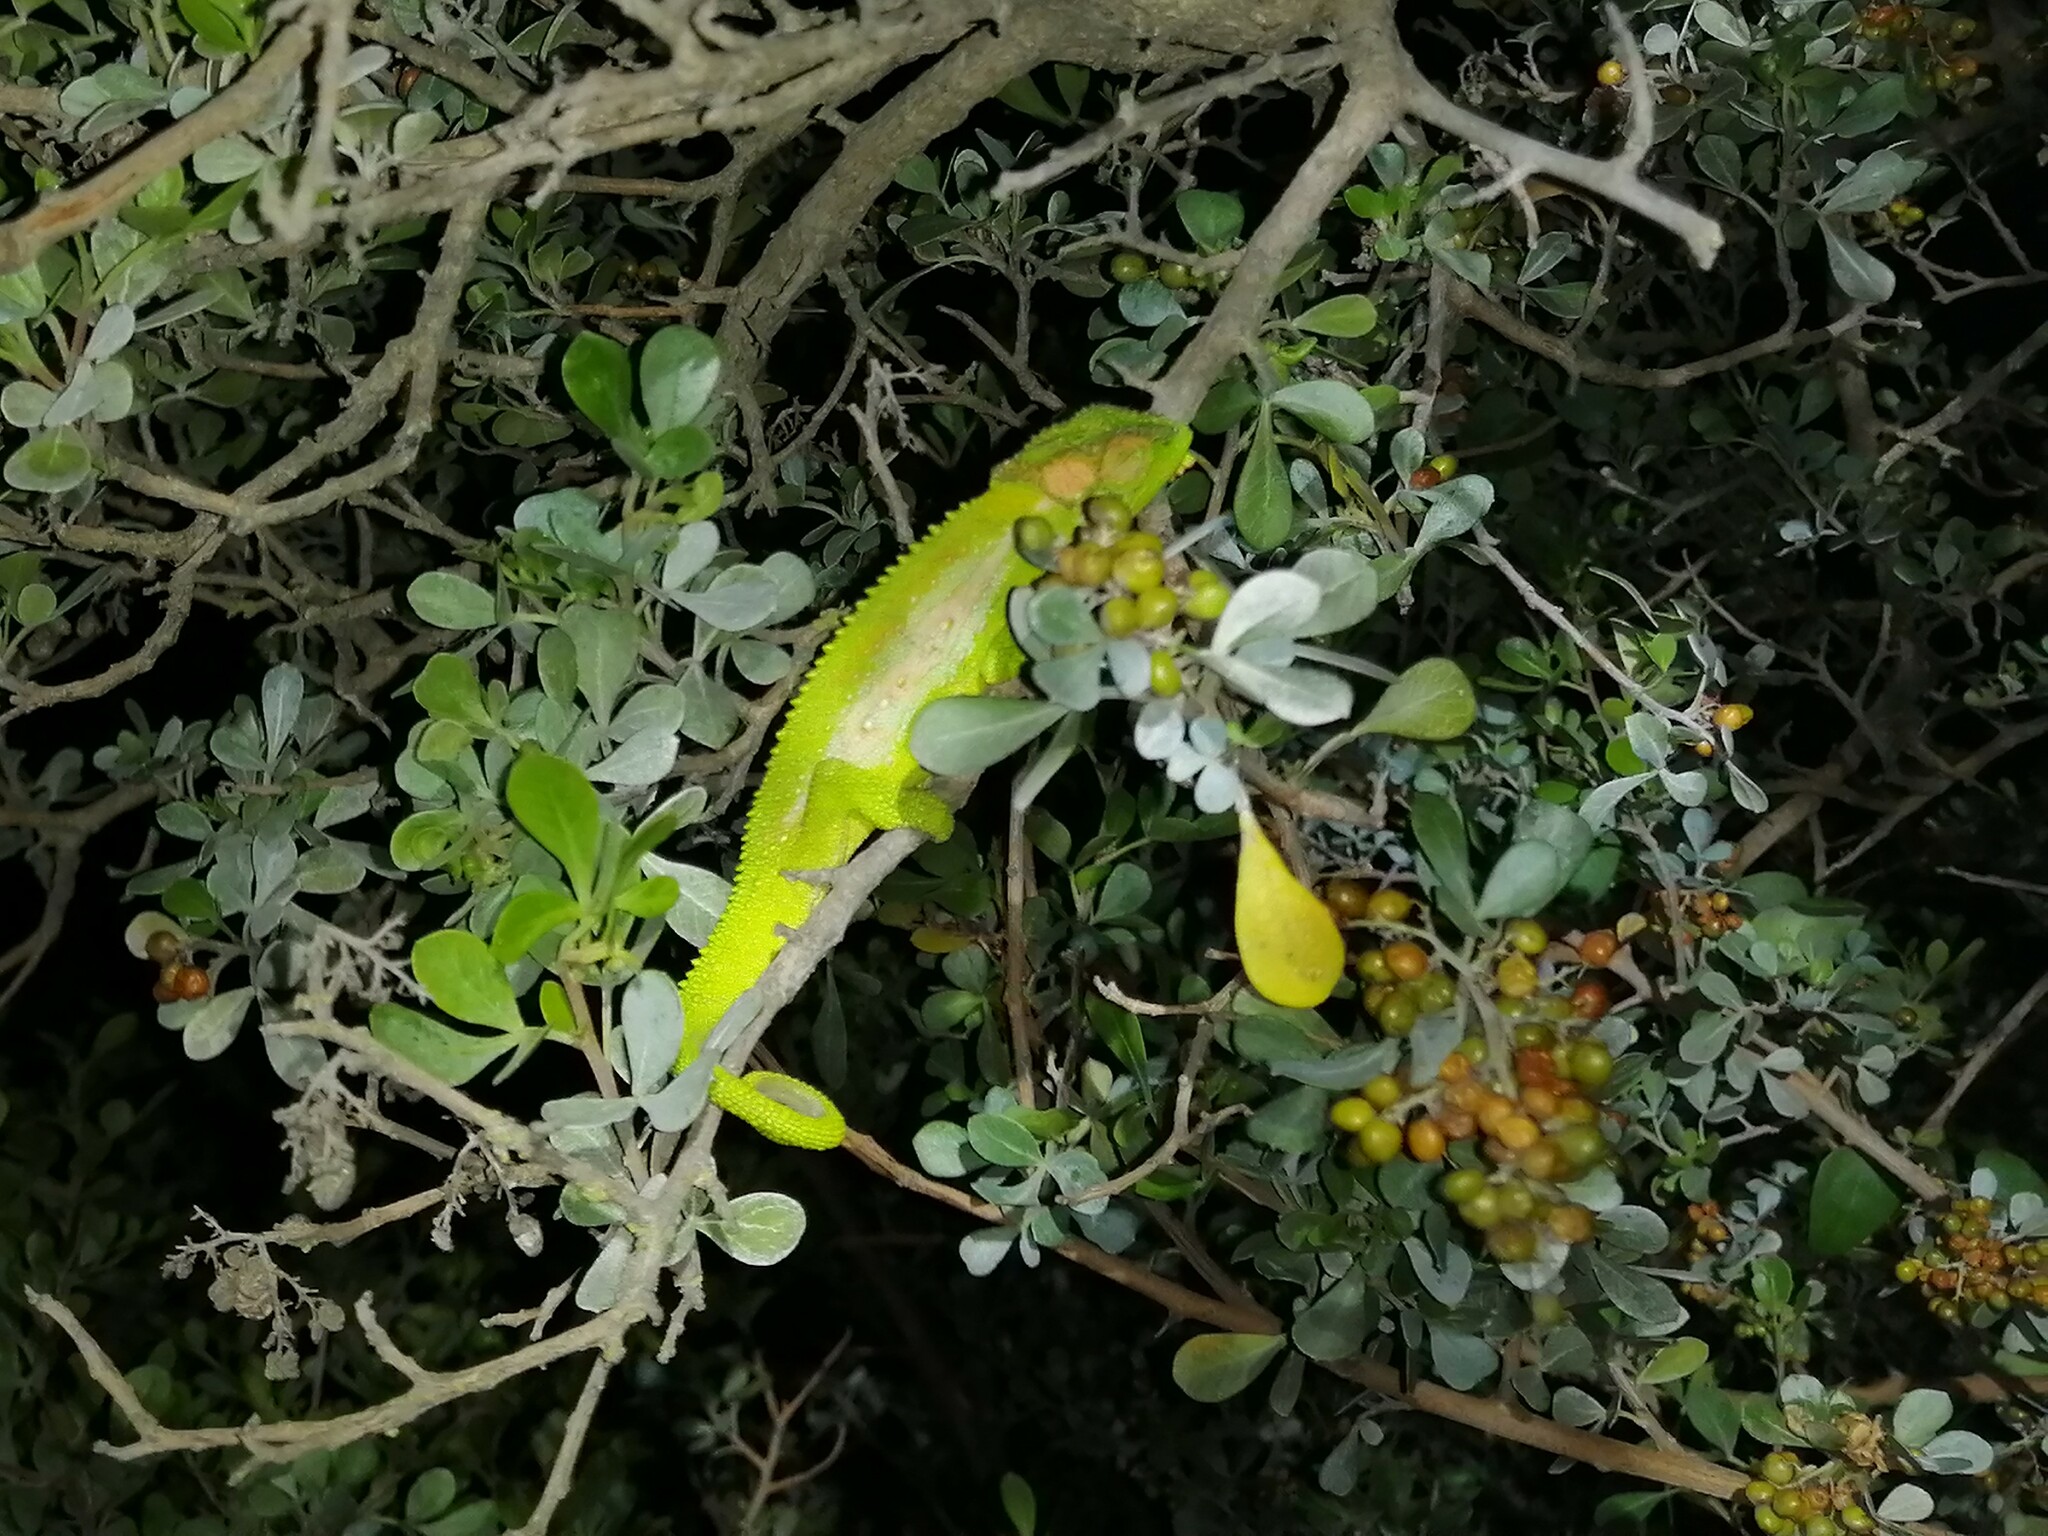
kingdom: Animalia
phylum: Chordata
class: Squamata
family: Chamaeleonidae
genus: Bradypodion
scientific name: Bradypodion pumilum
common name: Cape dwarf chameleon
